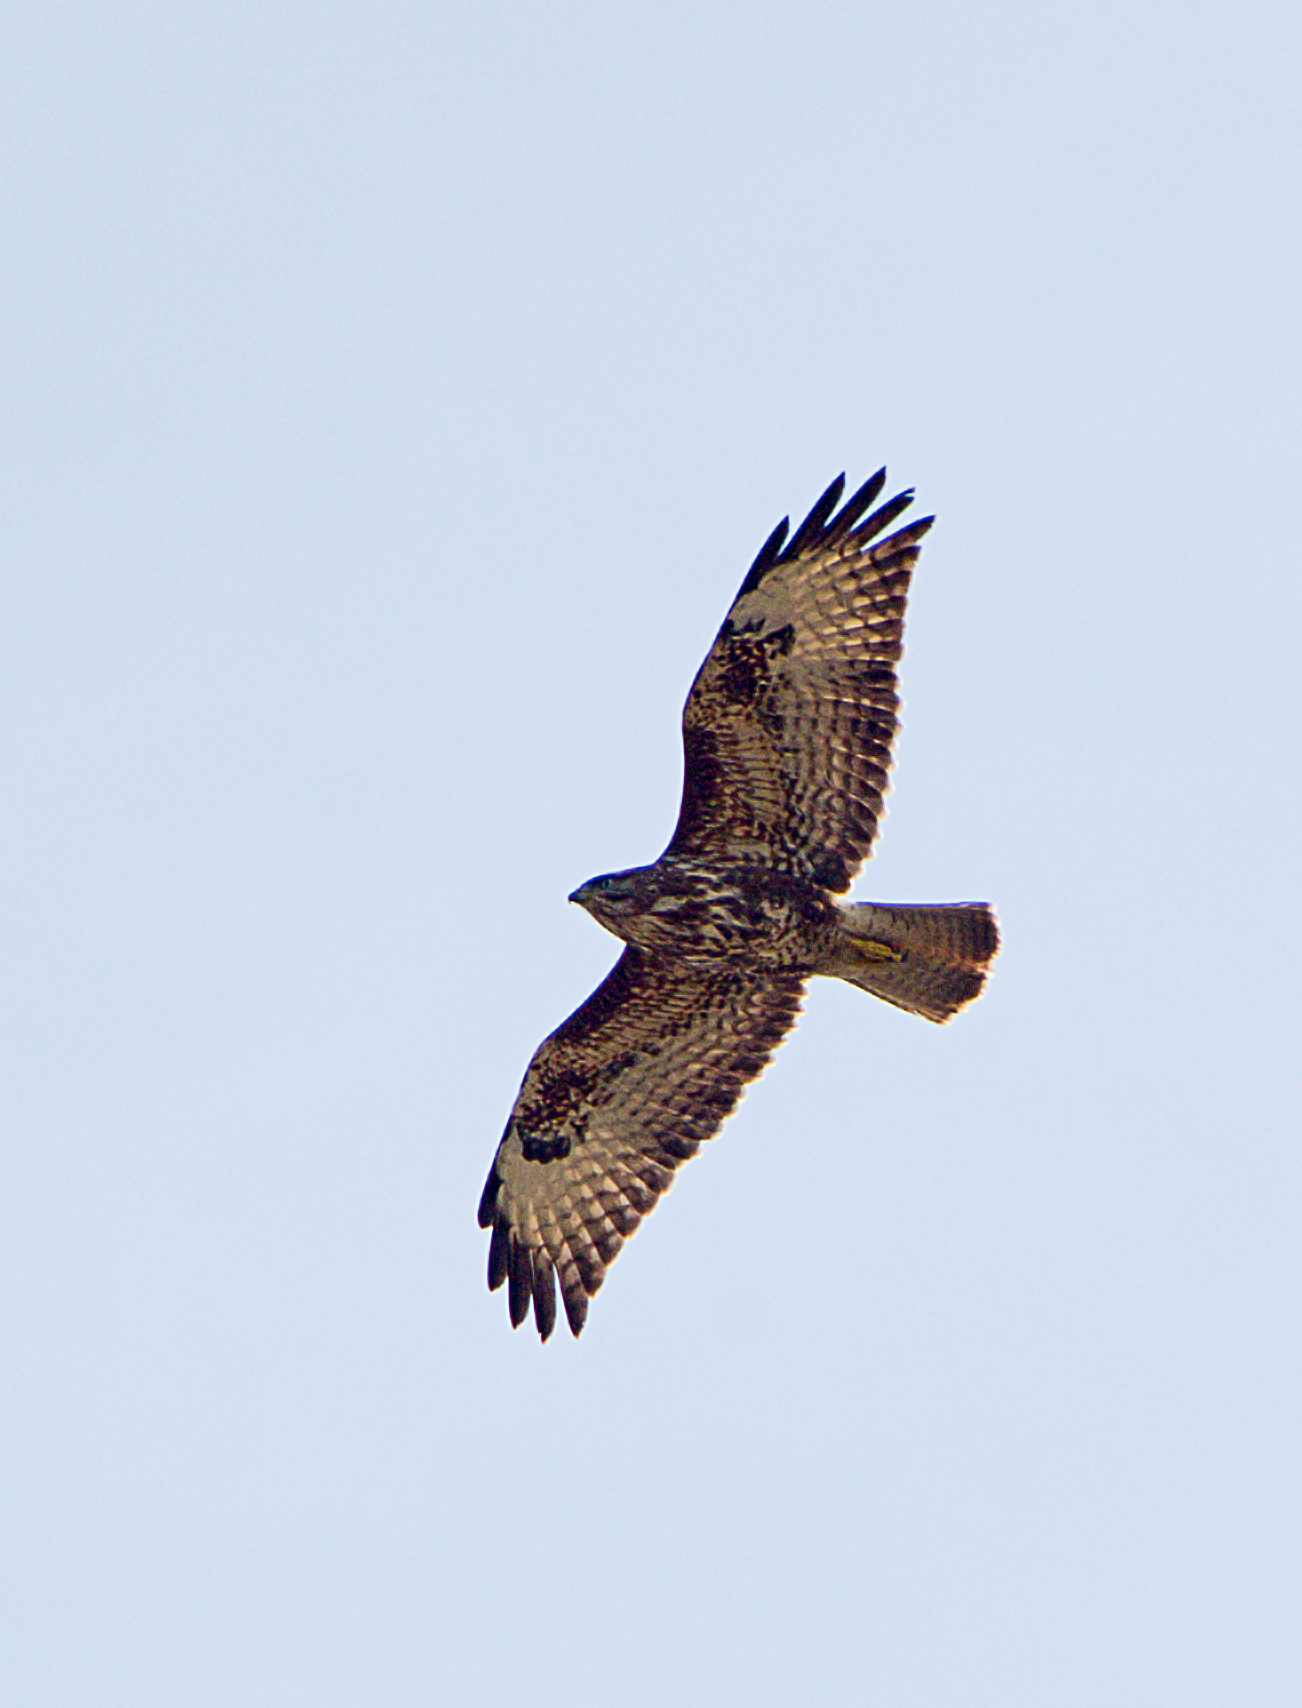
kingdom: Animalia
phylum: Chordata
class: Aves
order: Accipitriformes
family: Accipitridae
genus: Buteo
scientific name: Buteo buteo
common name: Common buzzard
